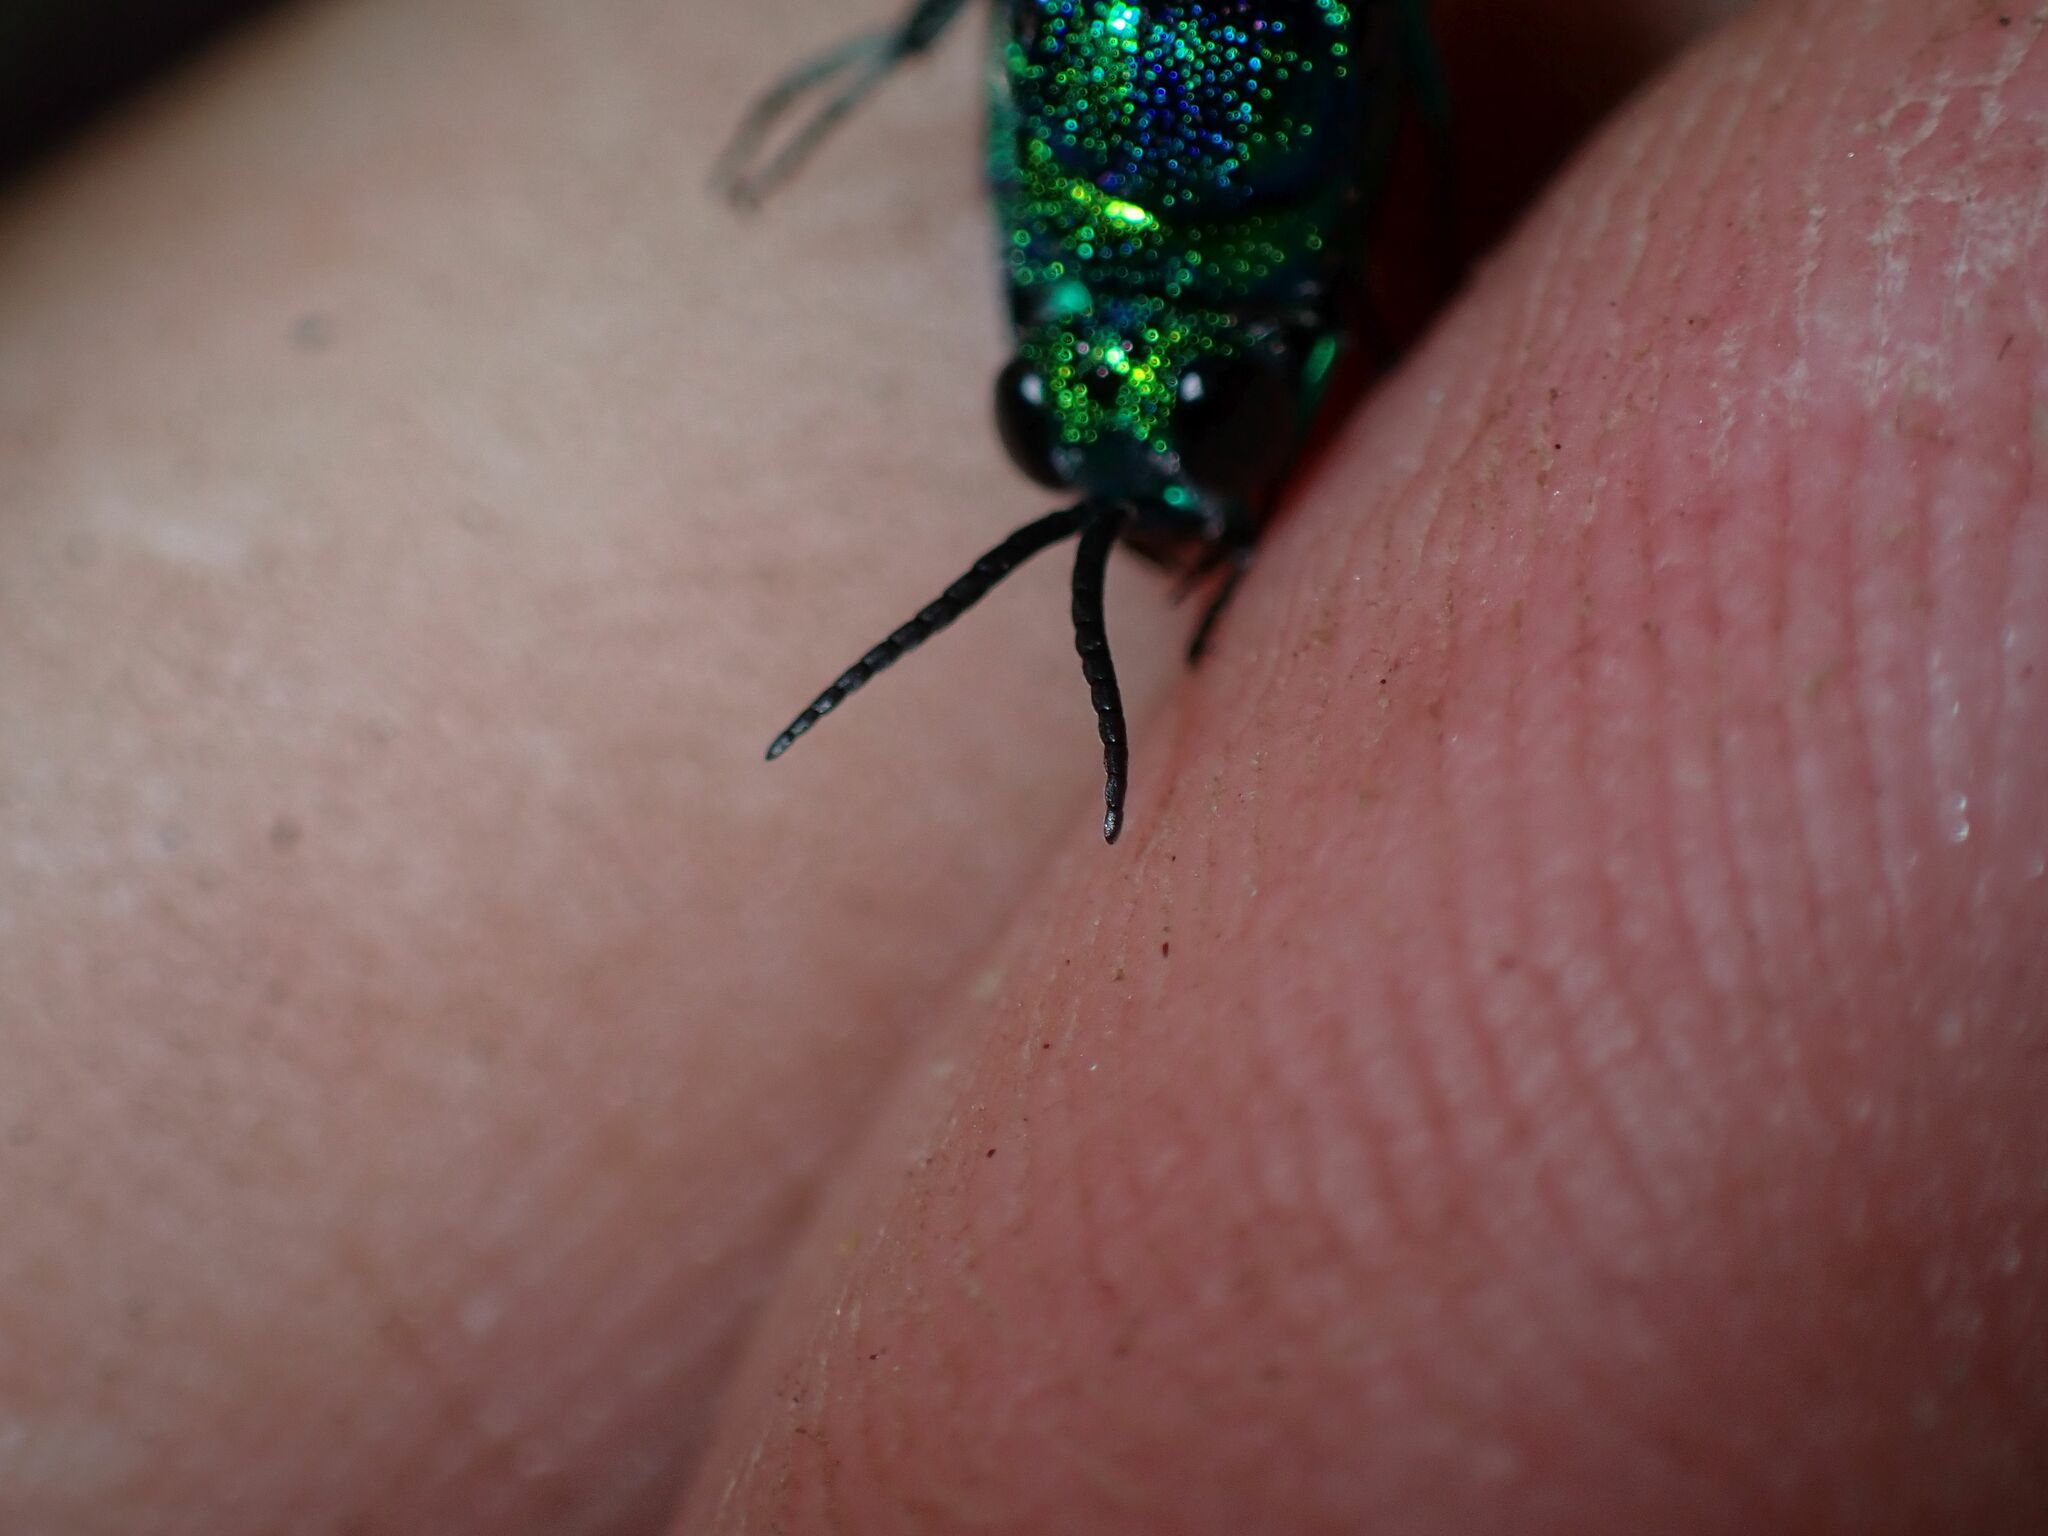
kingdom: Animalia
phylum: Arthropoda
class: Insecta
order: Hymenoptera
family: Chrysididae
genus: Chrysis
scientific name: Chrysis lincea
